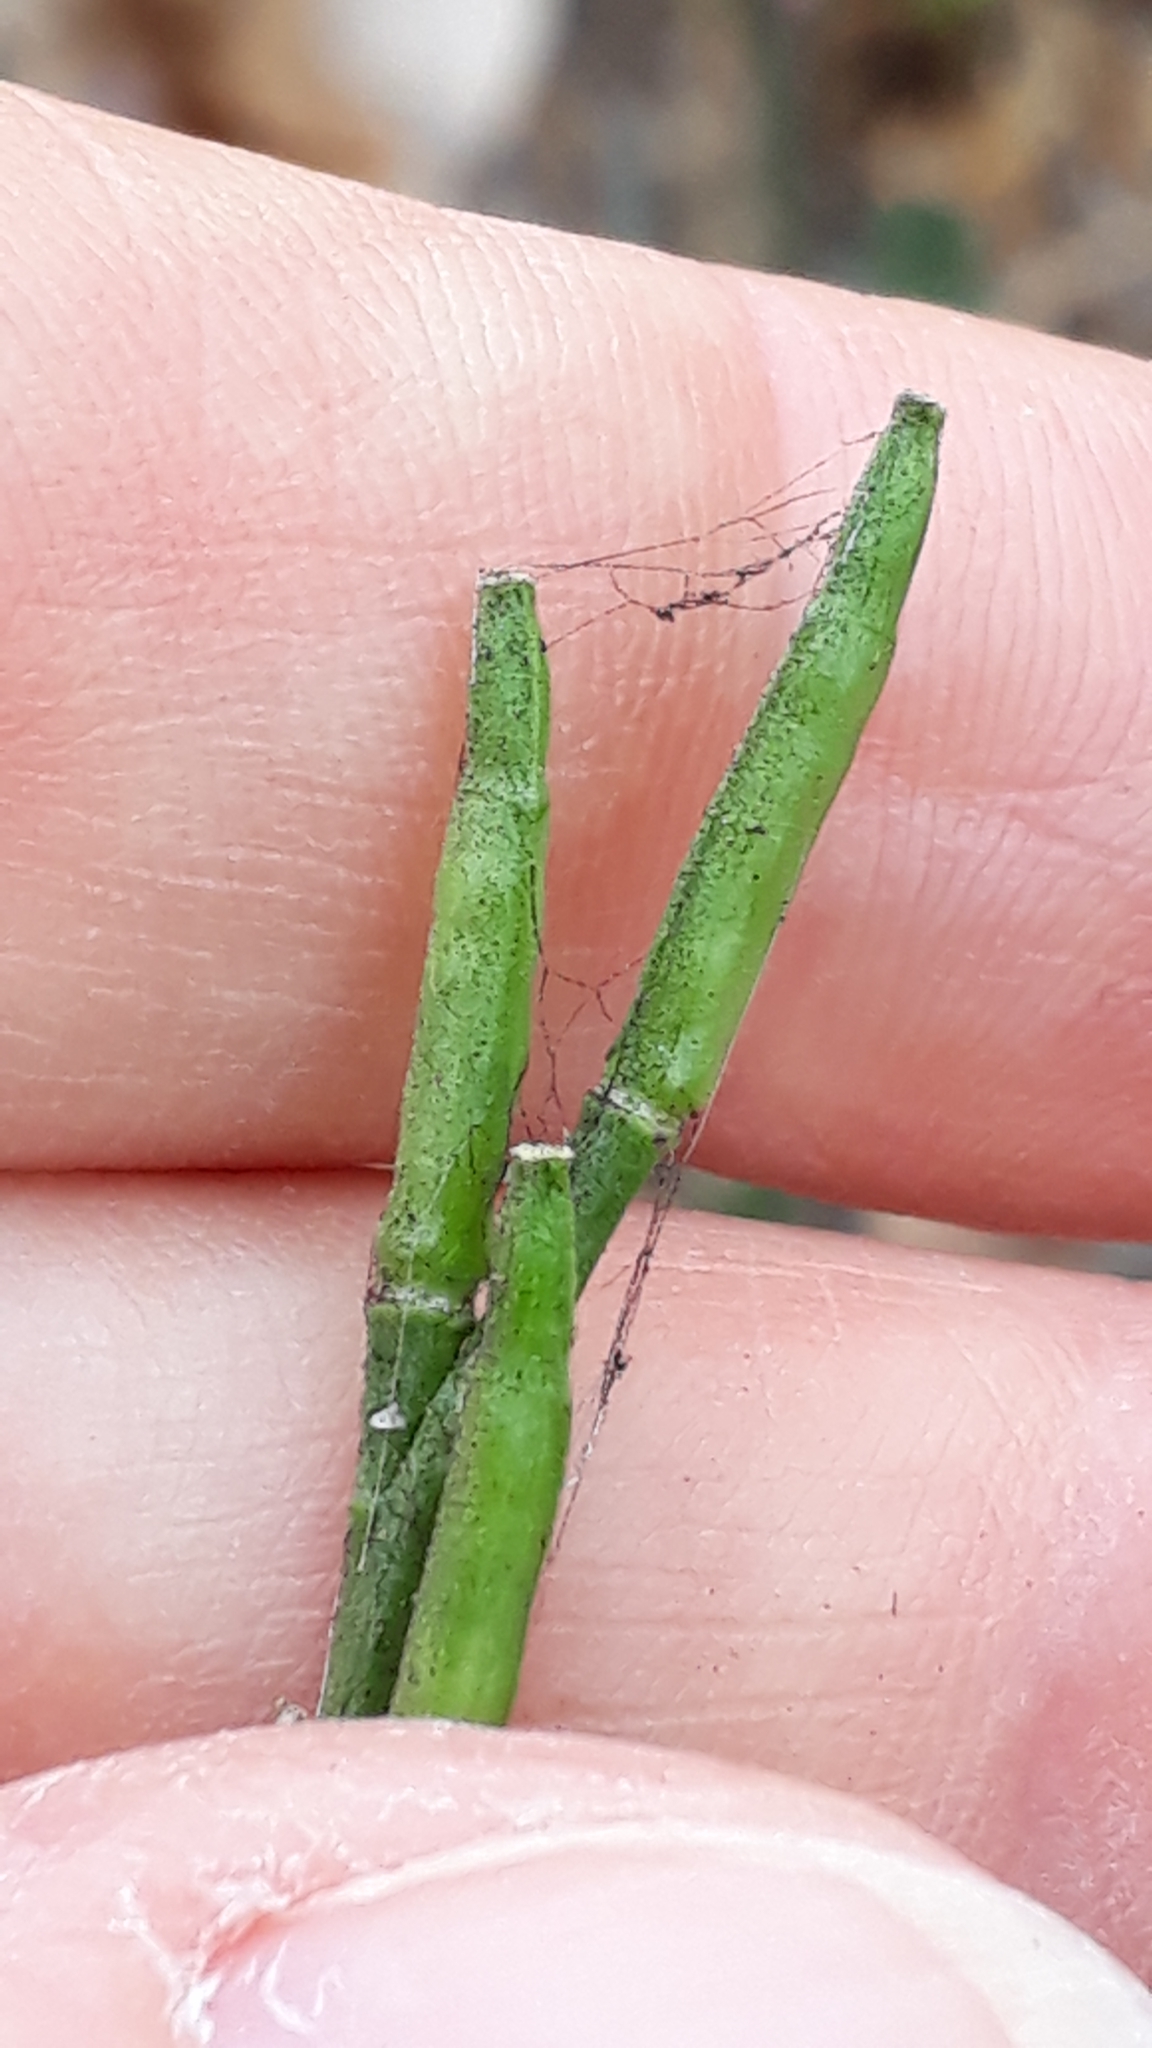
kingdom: Plantae
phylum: Tracheophyta
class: Magnoliopsida
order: Brassicales
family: Brassicaceae
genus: Hirschfeldia
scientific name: Hirschfeldia incana
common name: Hoary mustard
